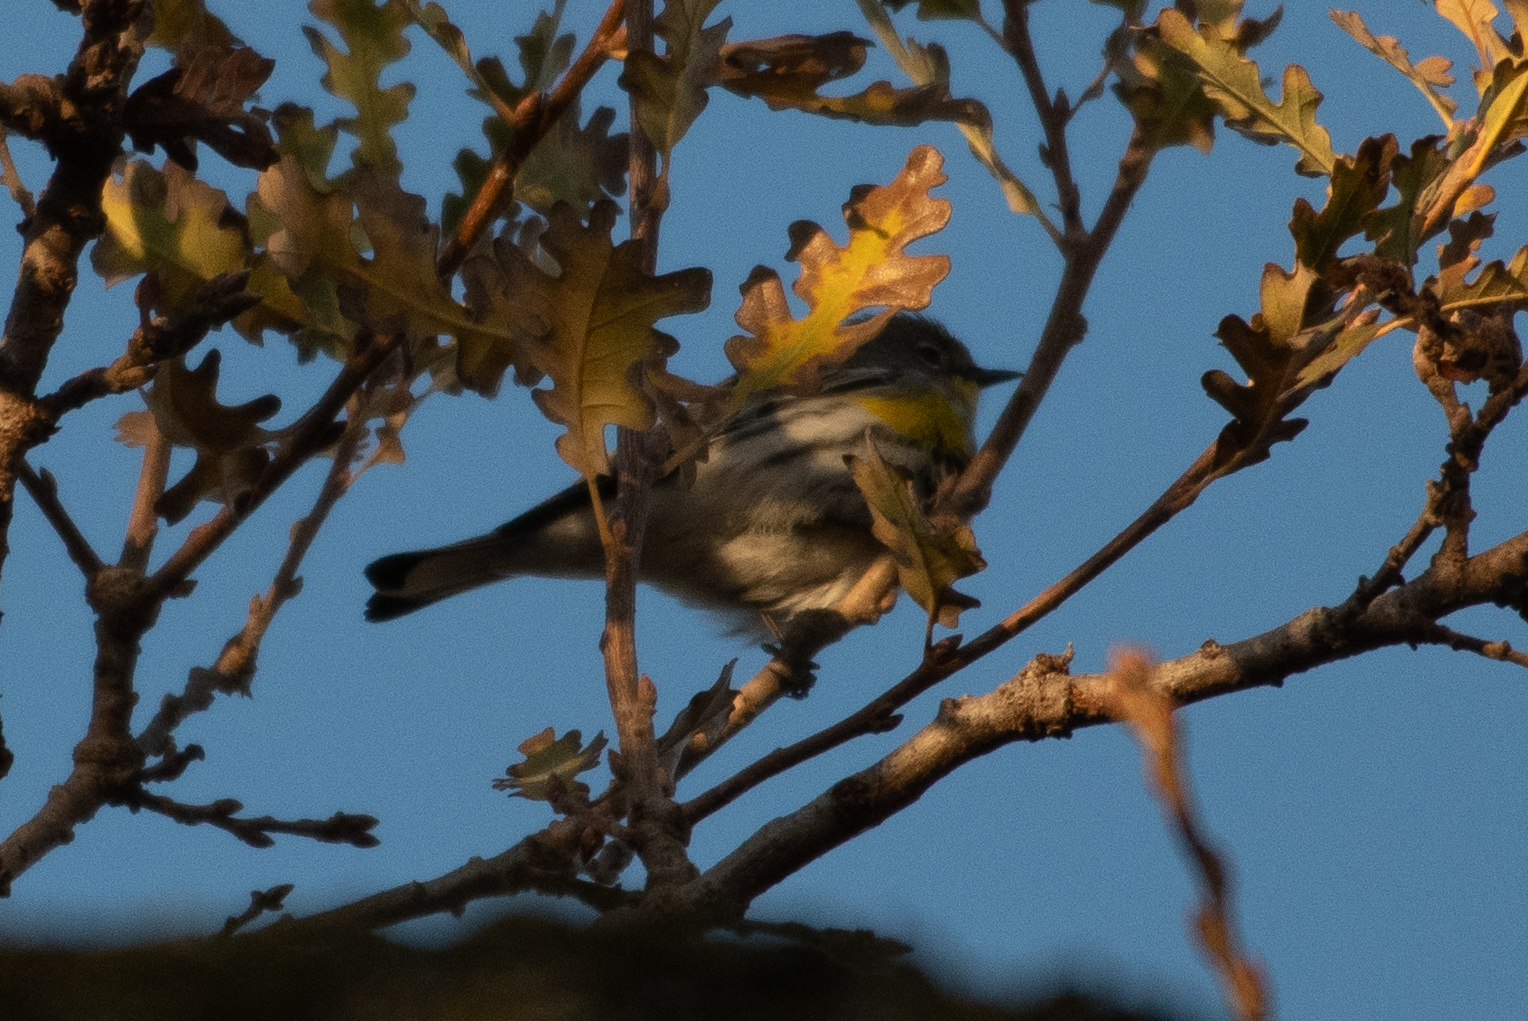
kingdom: Animalia
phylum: Chordata
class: Aves
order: Passeriformes
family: Parulidae
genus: Setophaga
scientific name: Setophaga coronata
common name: Myrtle warbler
